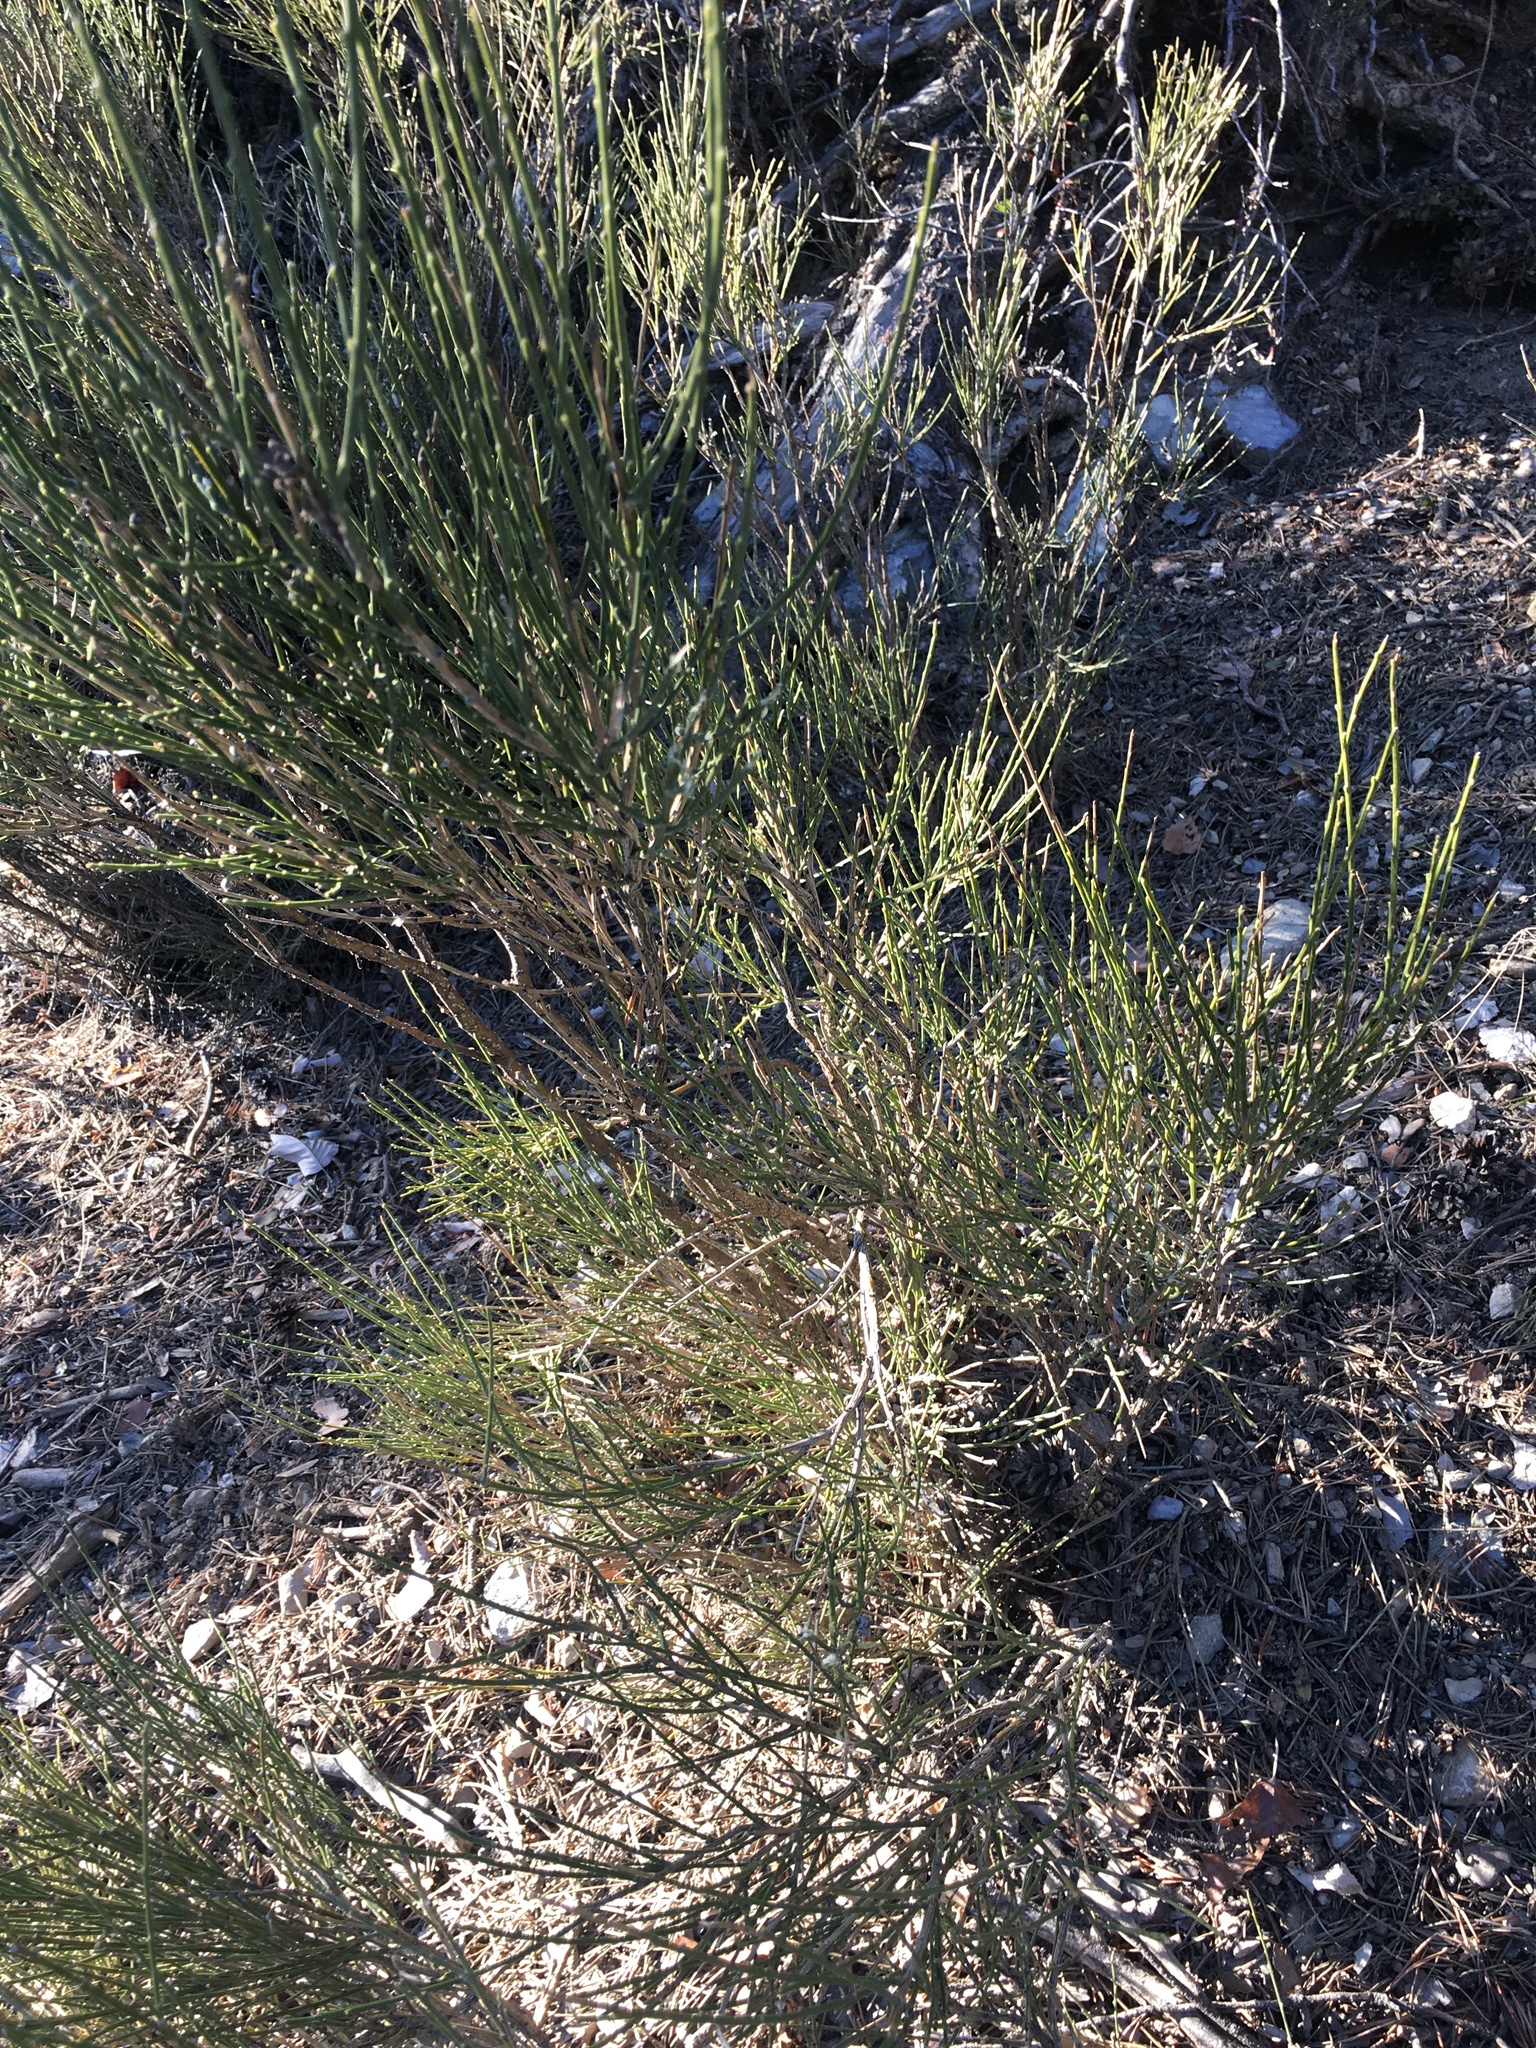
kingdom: Plantae
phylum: Tracheophyta
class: Magnoliopsida
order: Fabales
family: Fabaceae
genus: Genista
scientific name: Genista cinerea
